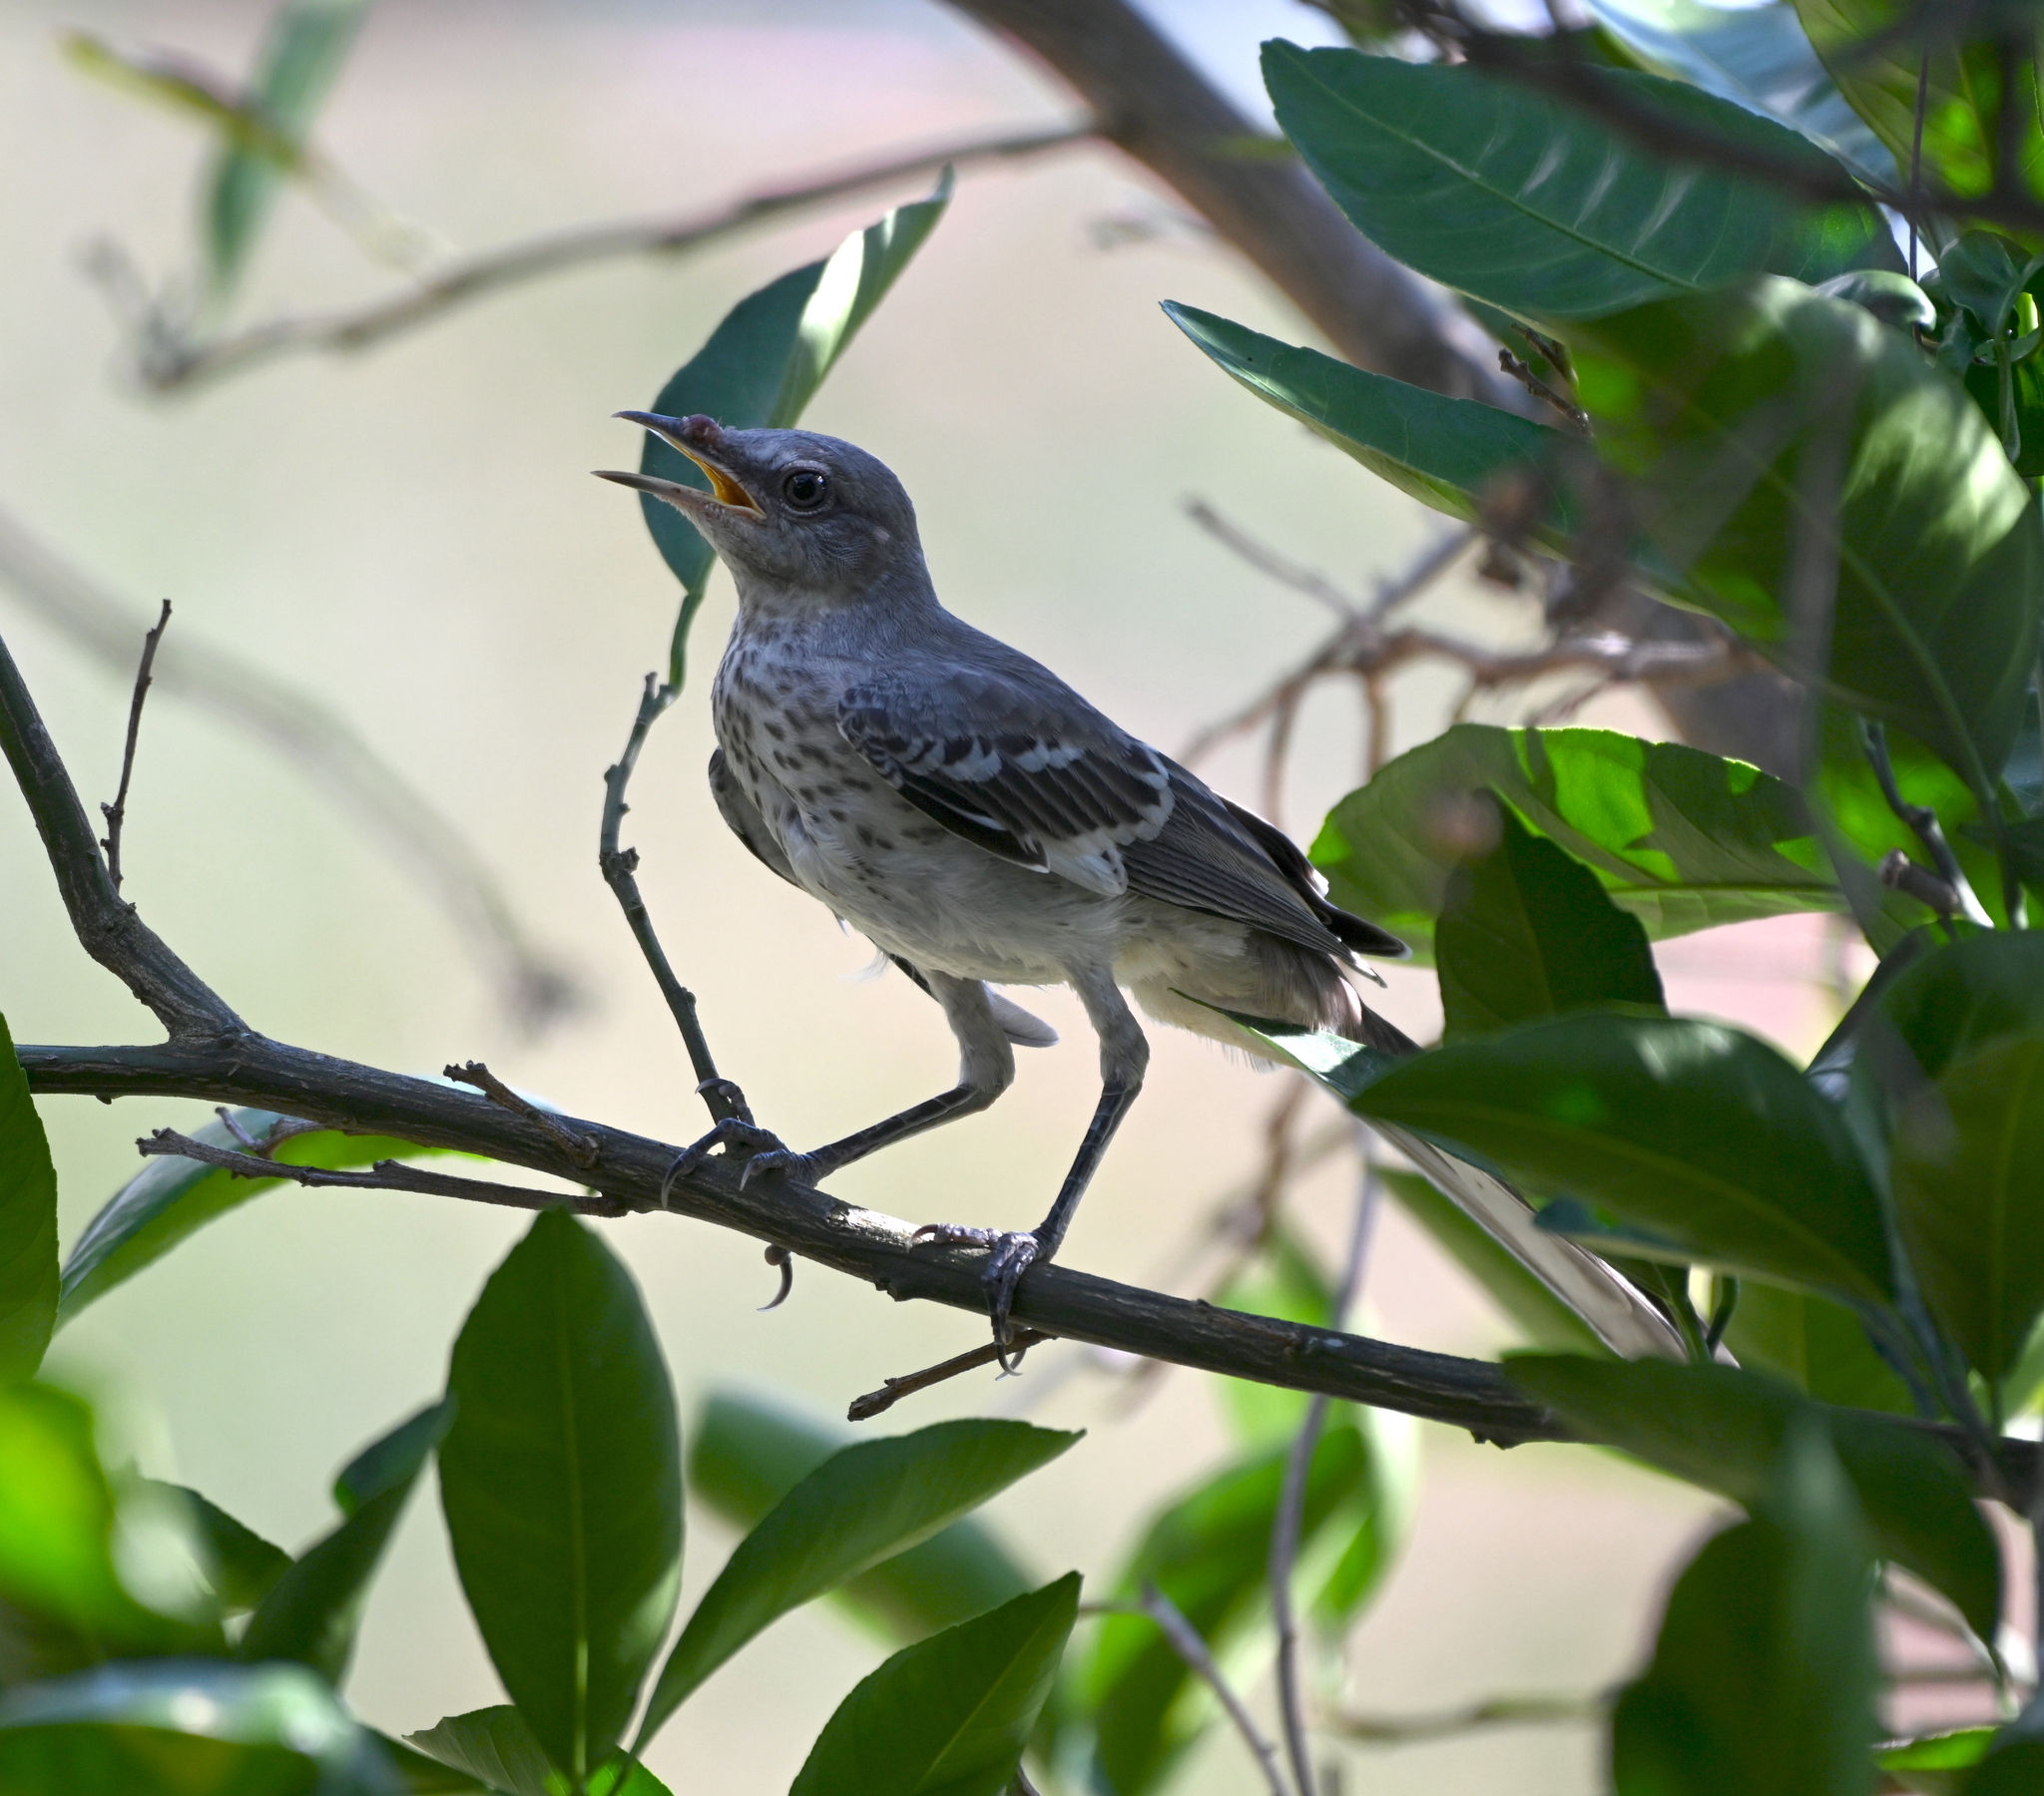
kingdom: Animalia
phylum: Chordata
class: Aves
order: Passeriformes
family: Mimidae
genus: Mimus
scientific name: Mimus polyglottos
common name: Northern mockingbird
